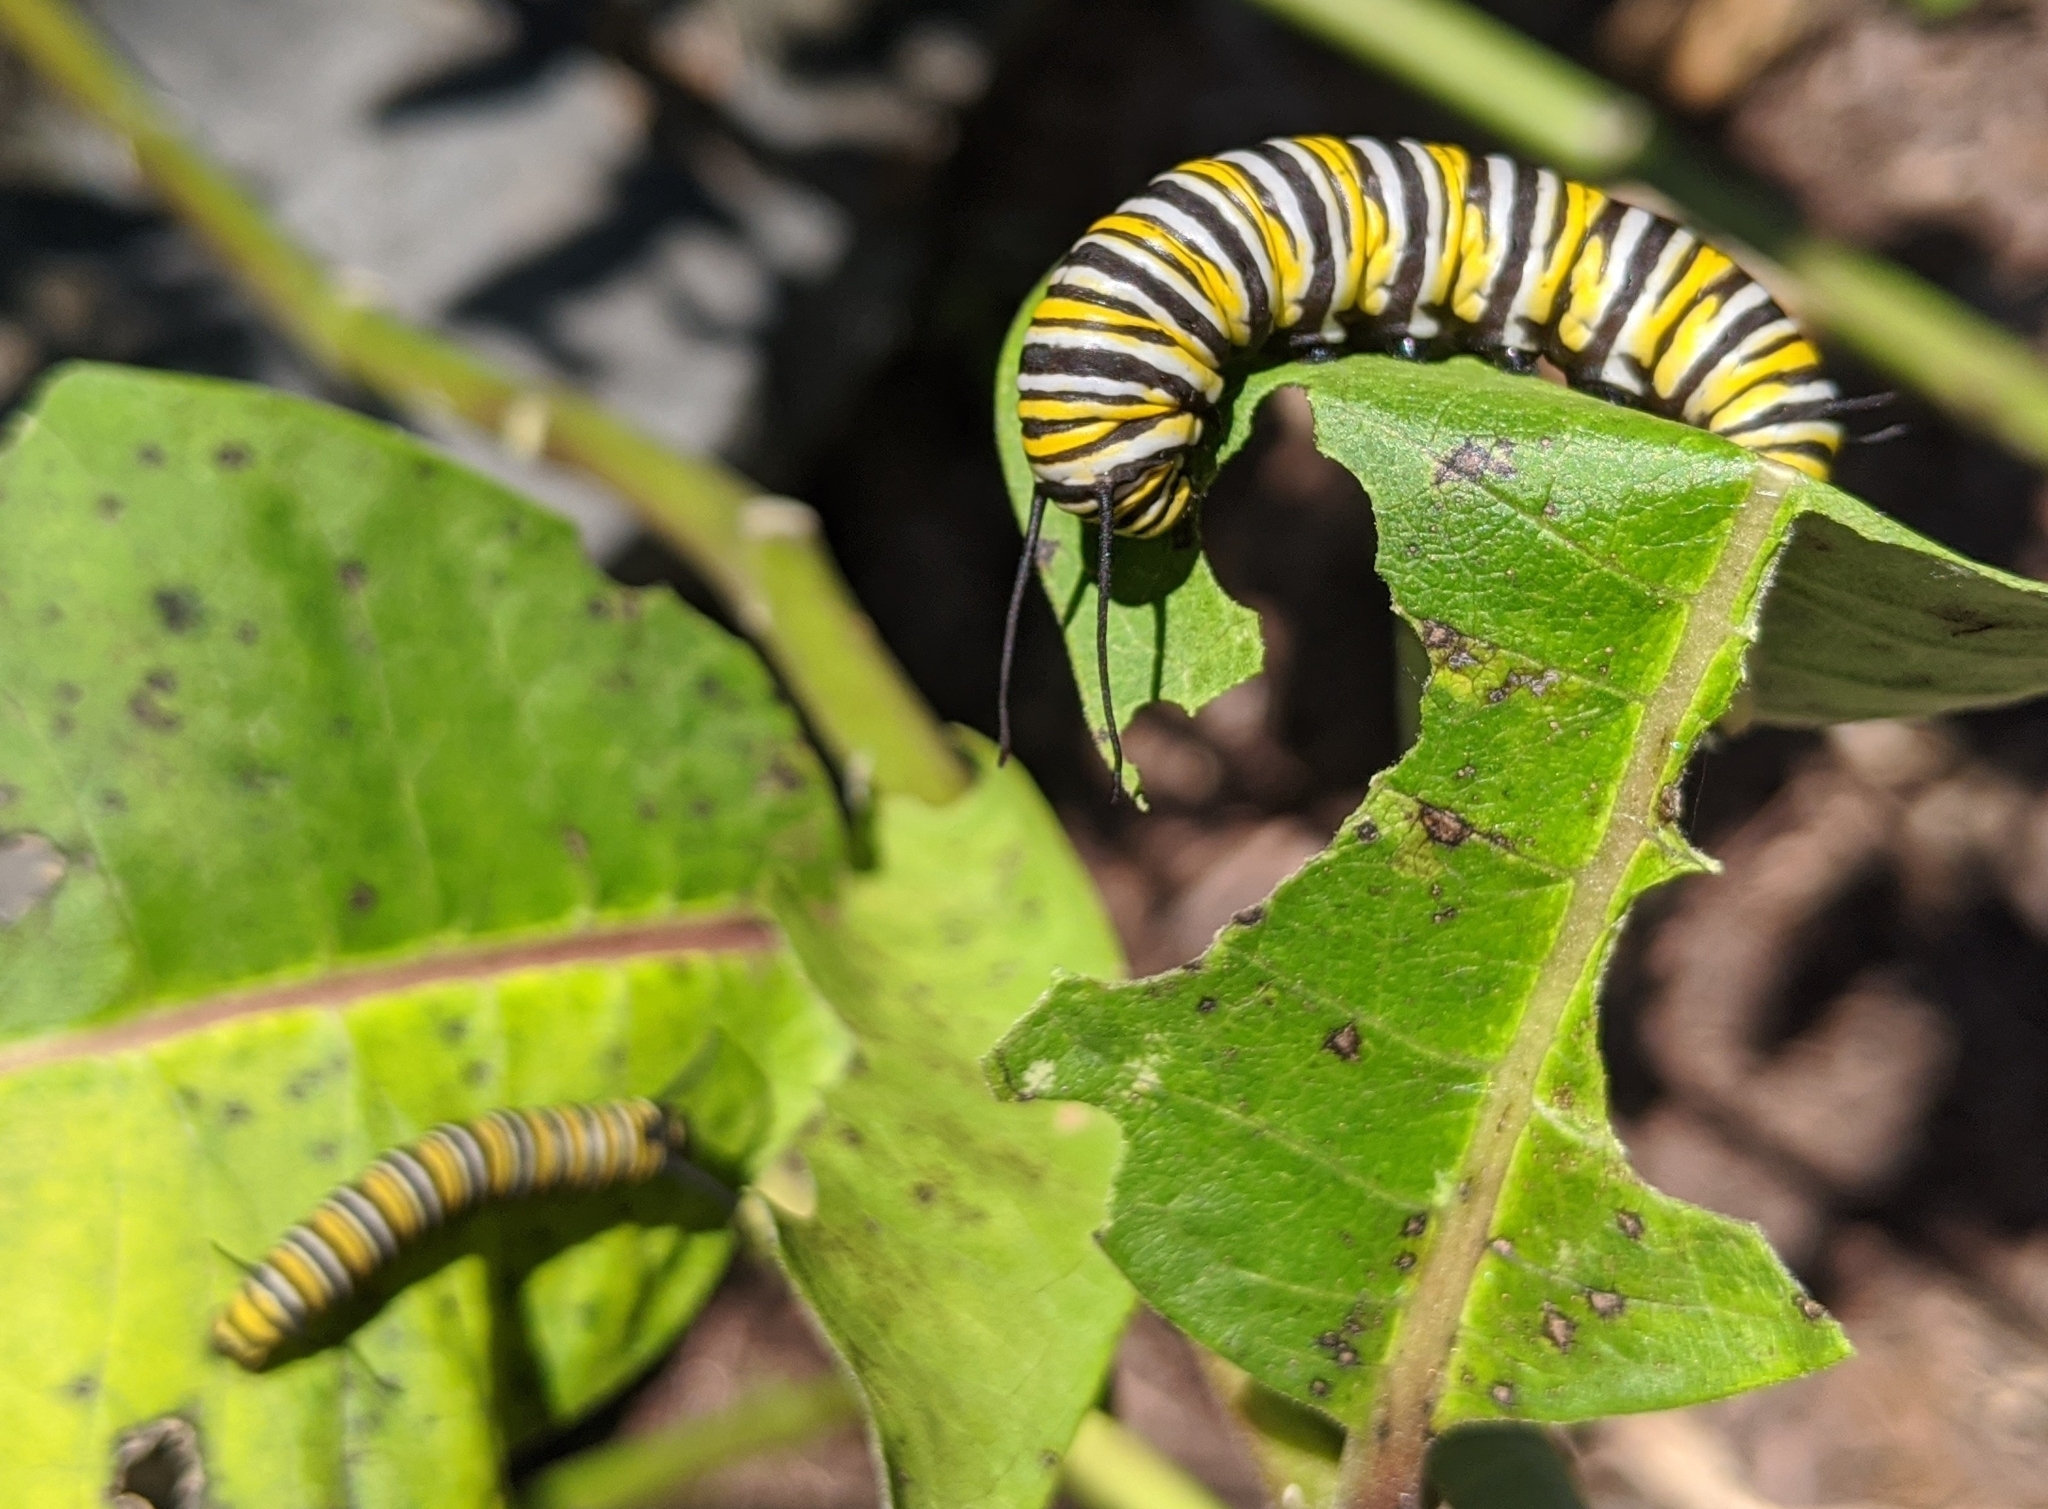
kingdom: Animalia
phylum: Arthropoda
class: Insecta
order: Lepidoptera
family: Nymphalidae
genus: Danaus
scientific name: Danaus plexippus
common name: Monarch
